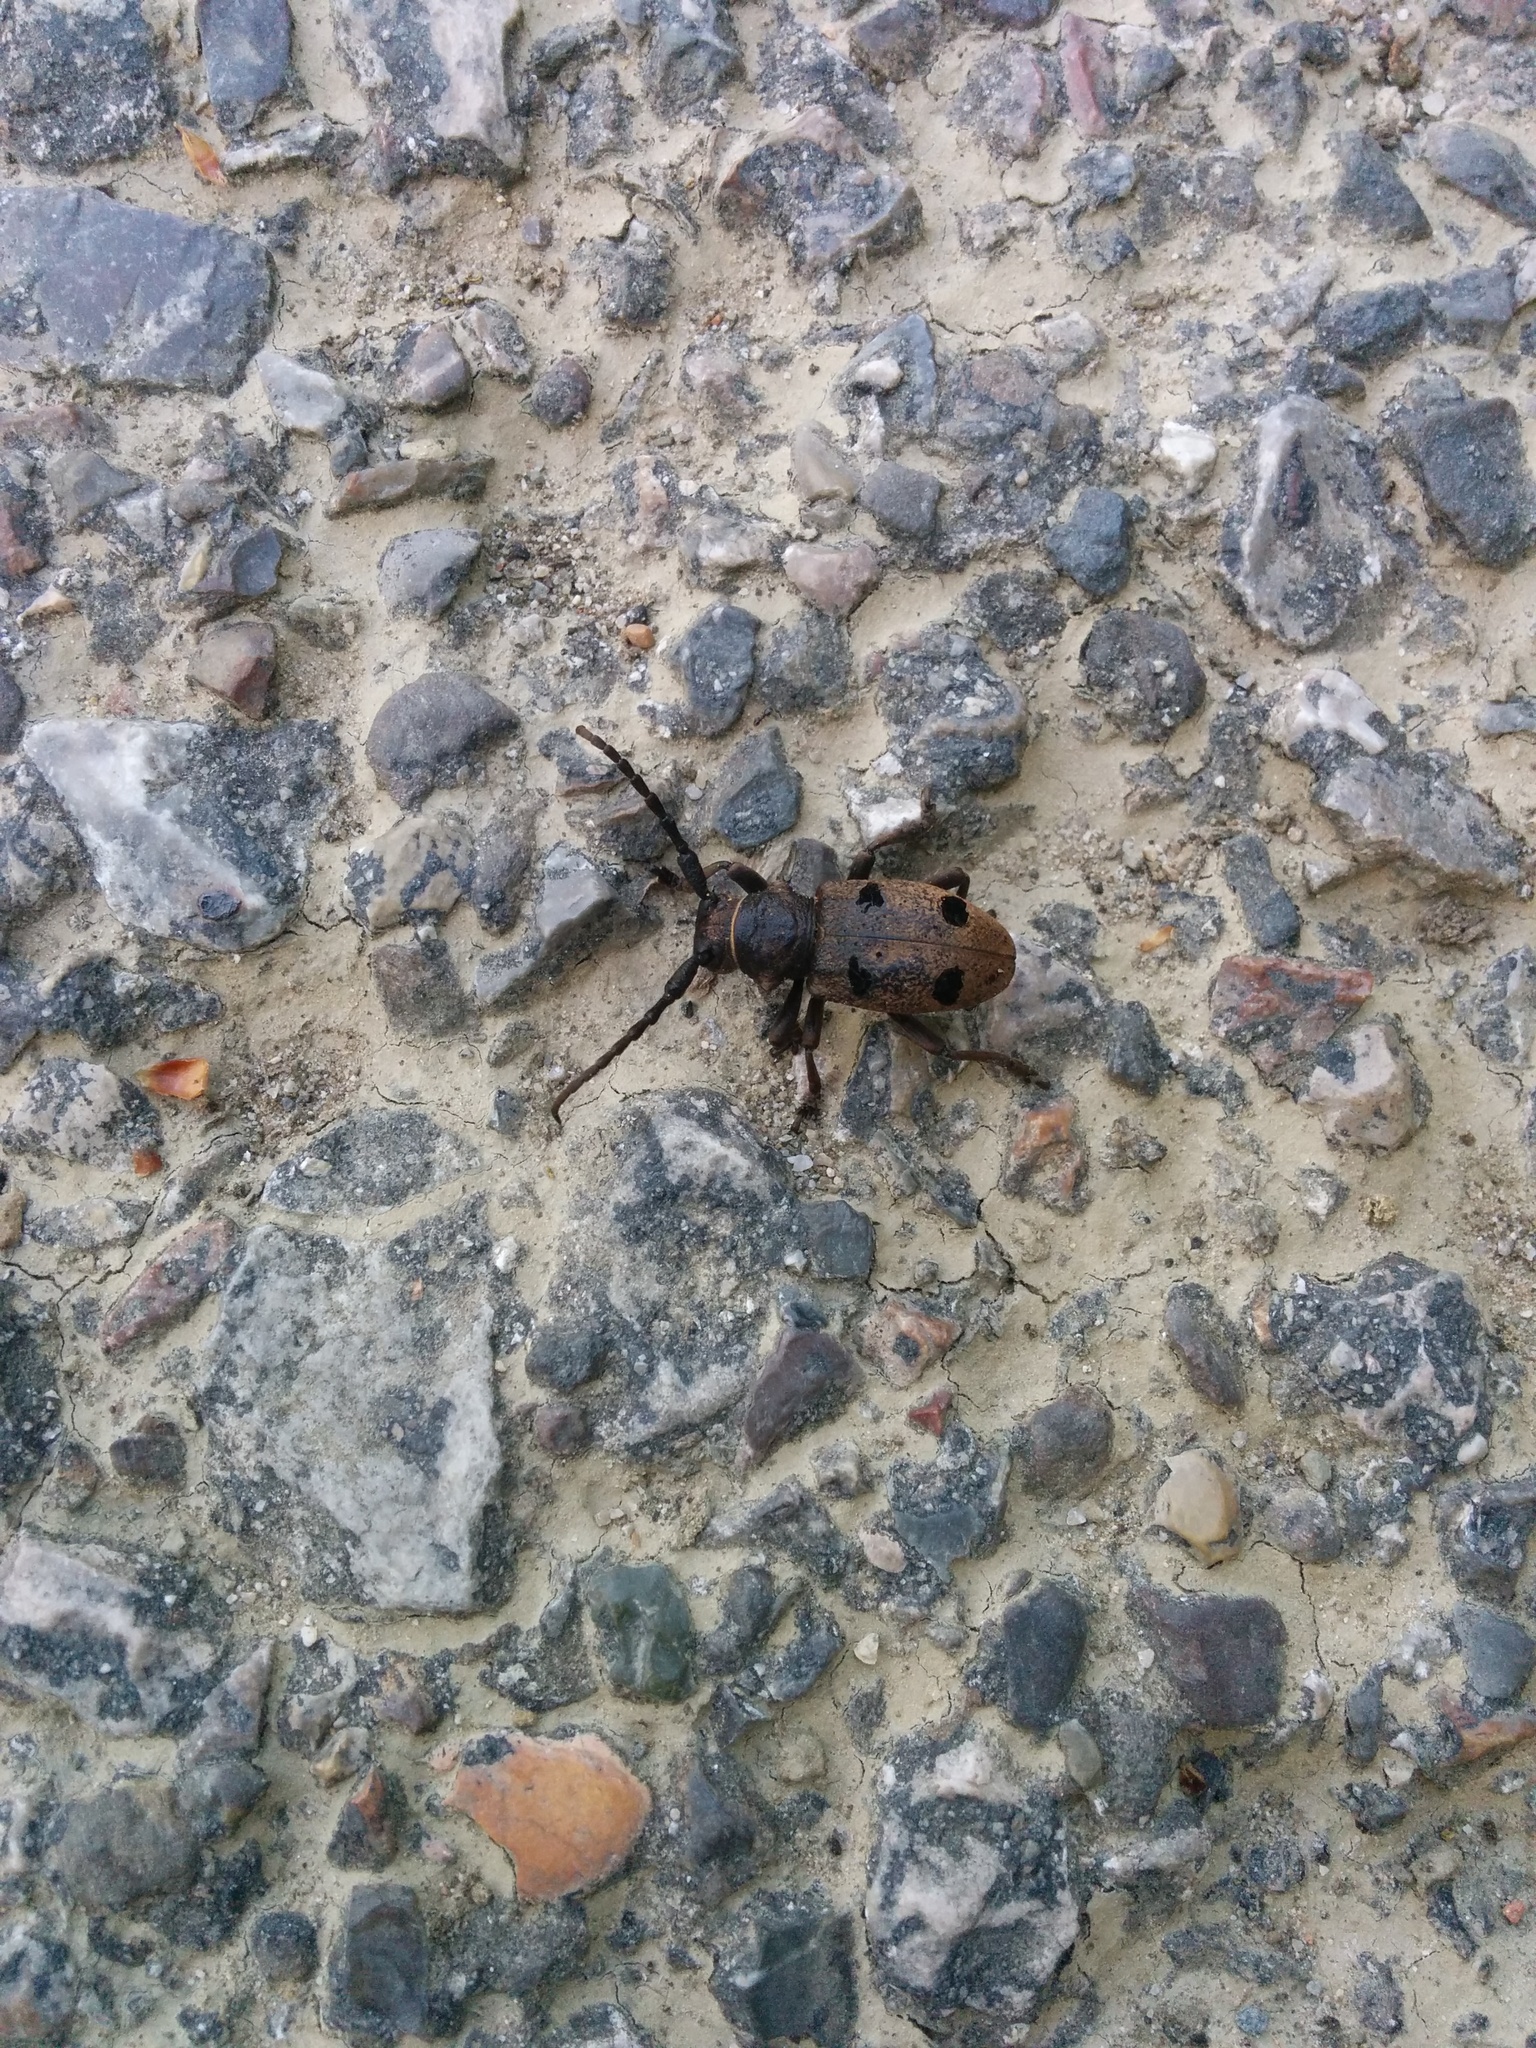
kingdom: Animalia
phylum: Arthropoda
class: Insecta
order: Coleoptera
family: Cerambycidae
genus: Herophila
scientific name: Herophila tristis
